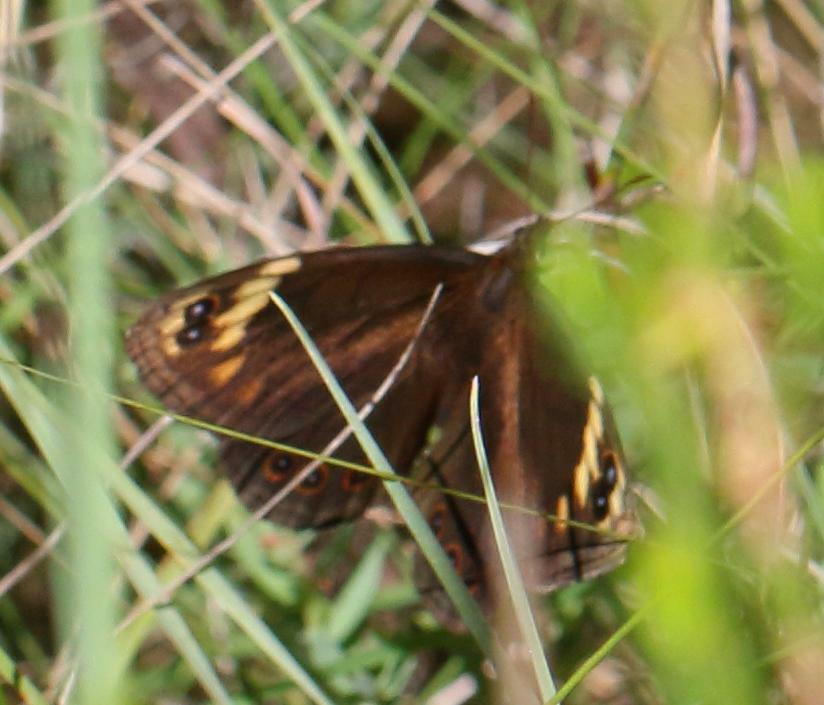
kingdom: Animalia
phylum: Arthropoda
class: Insecta
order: Lepidoptera
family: Nymphalidae
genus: Dira
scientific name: Dira clytus
